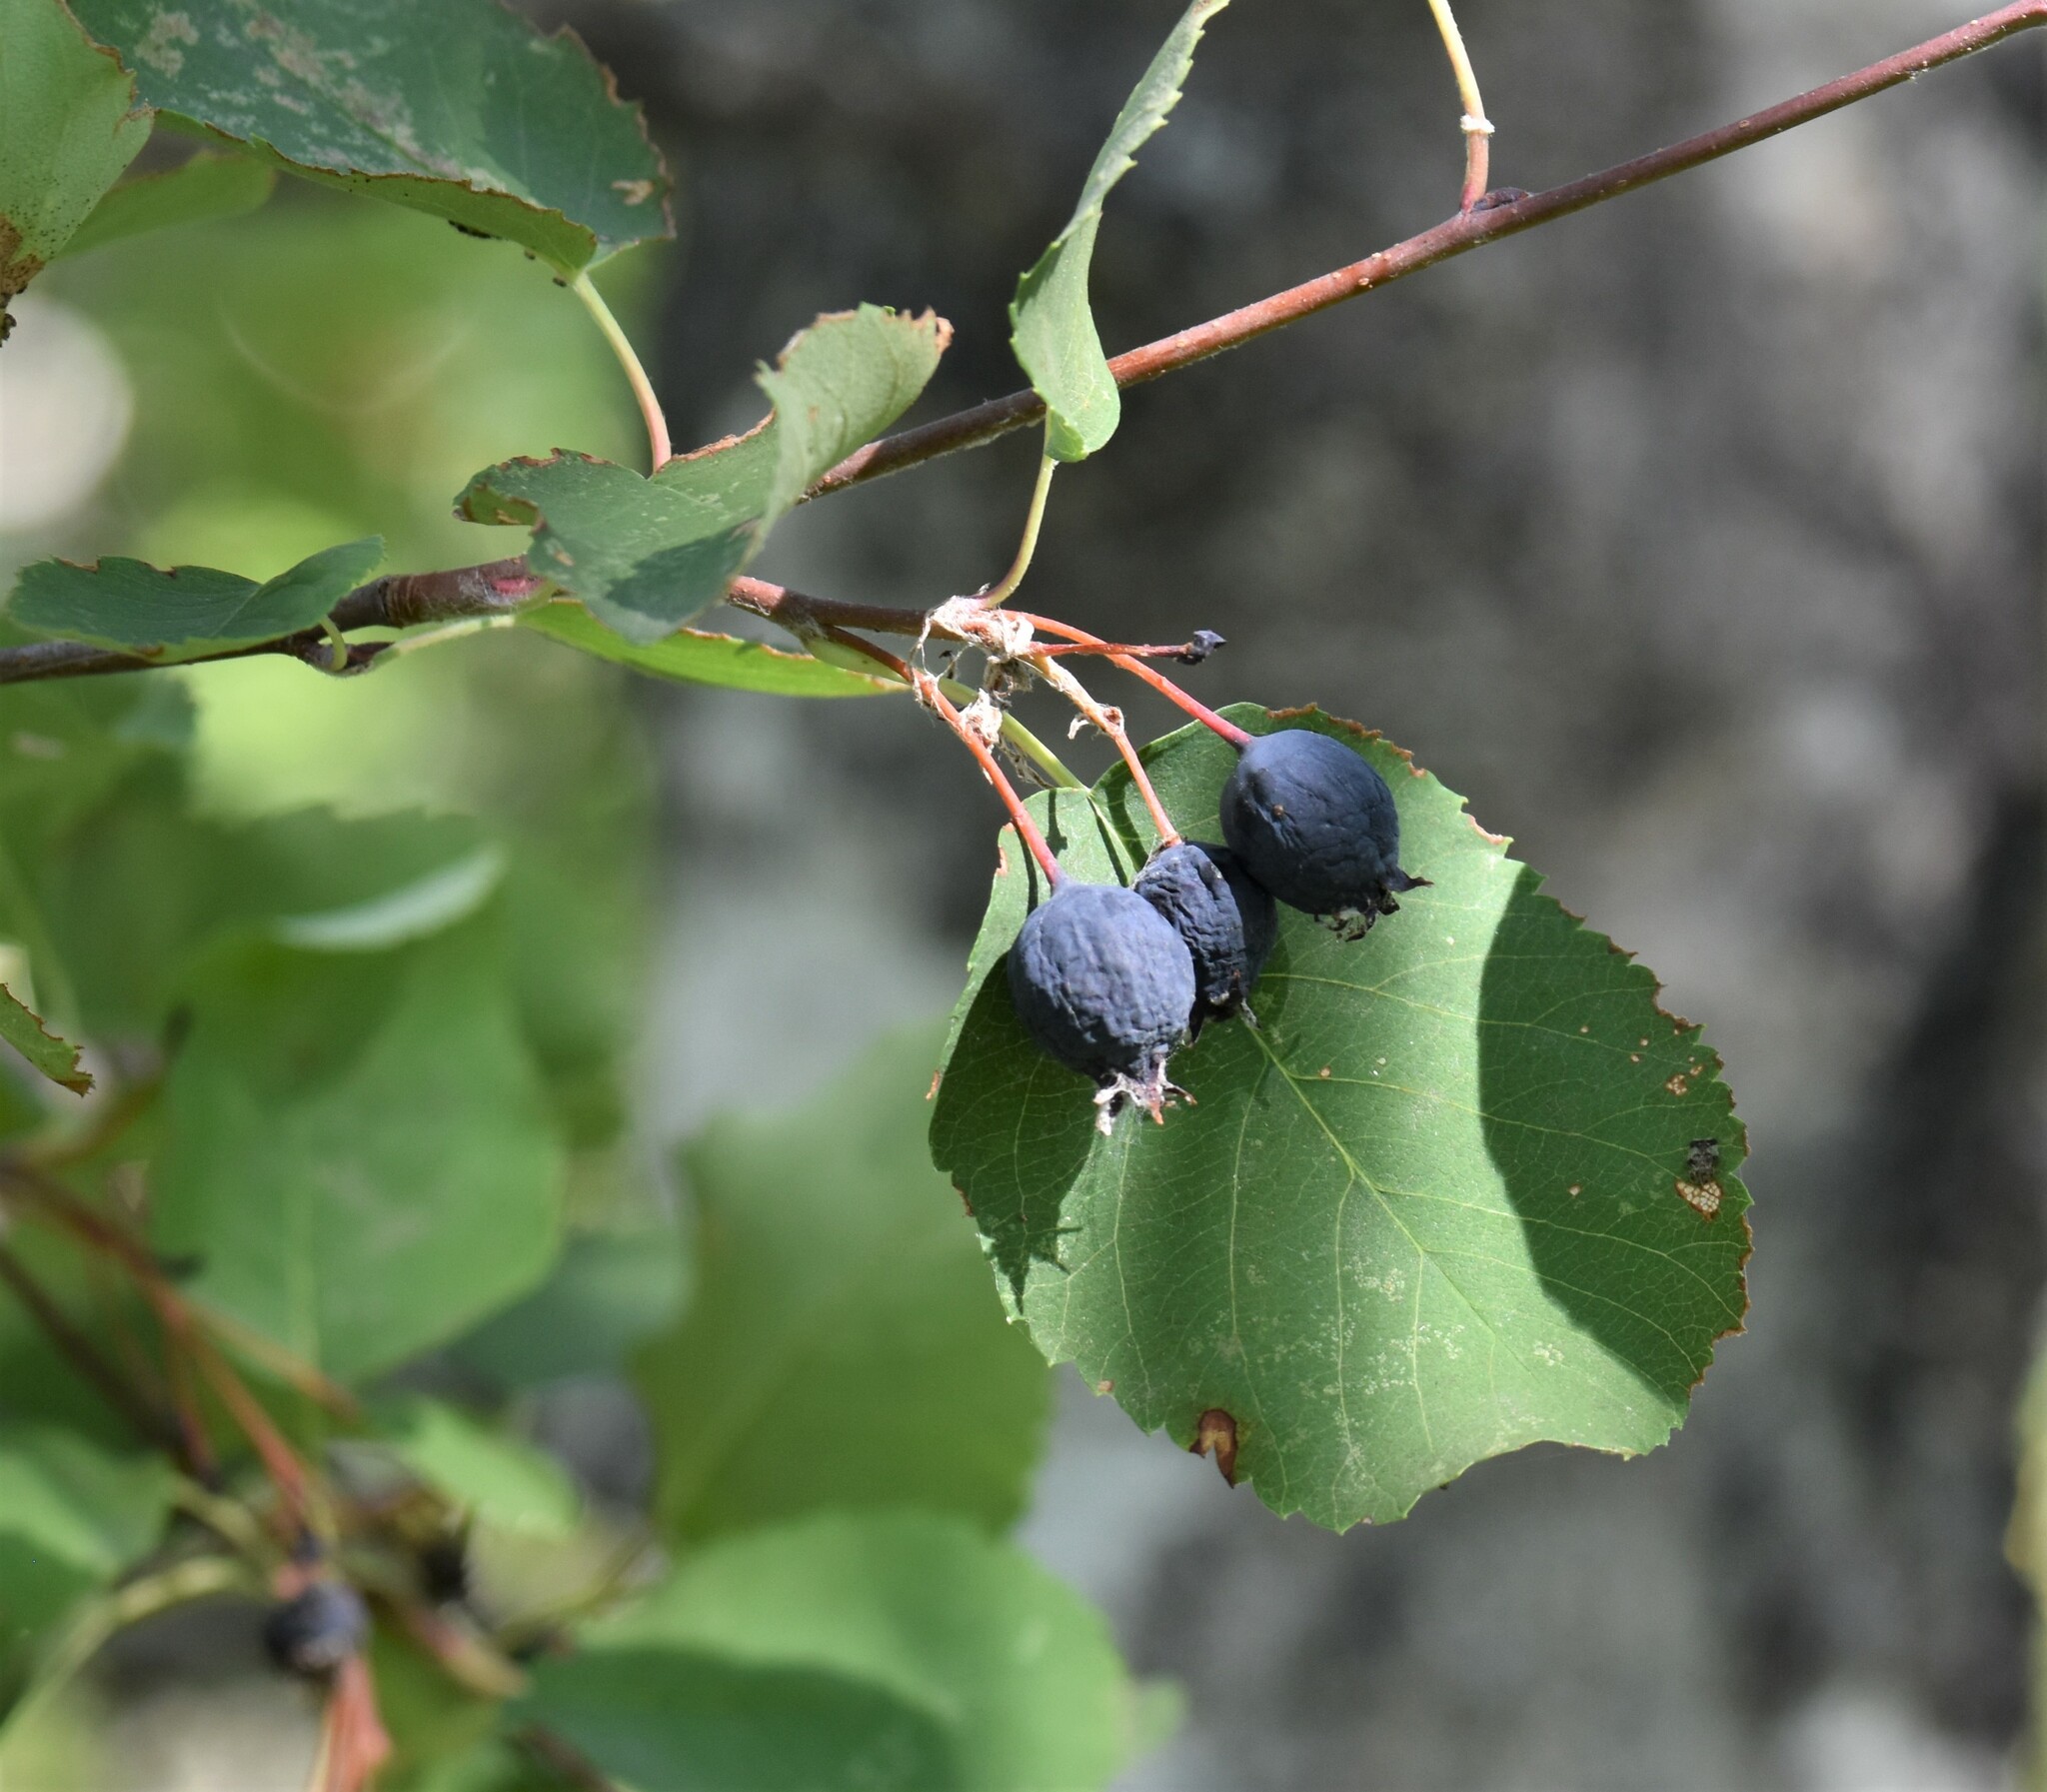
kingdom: Plantae
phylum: Tracheophyta
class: Magnoliopsida
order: Rosales
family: Rosaceae
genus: Amelanchier
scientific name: Amelanchier alnifolia
